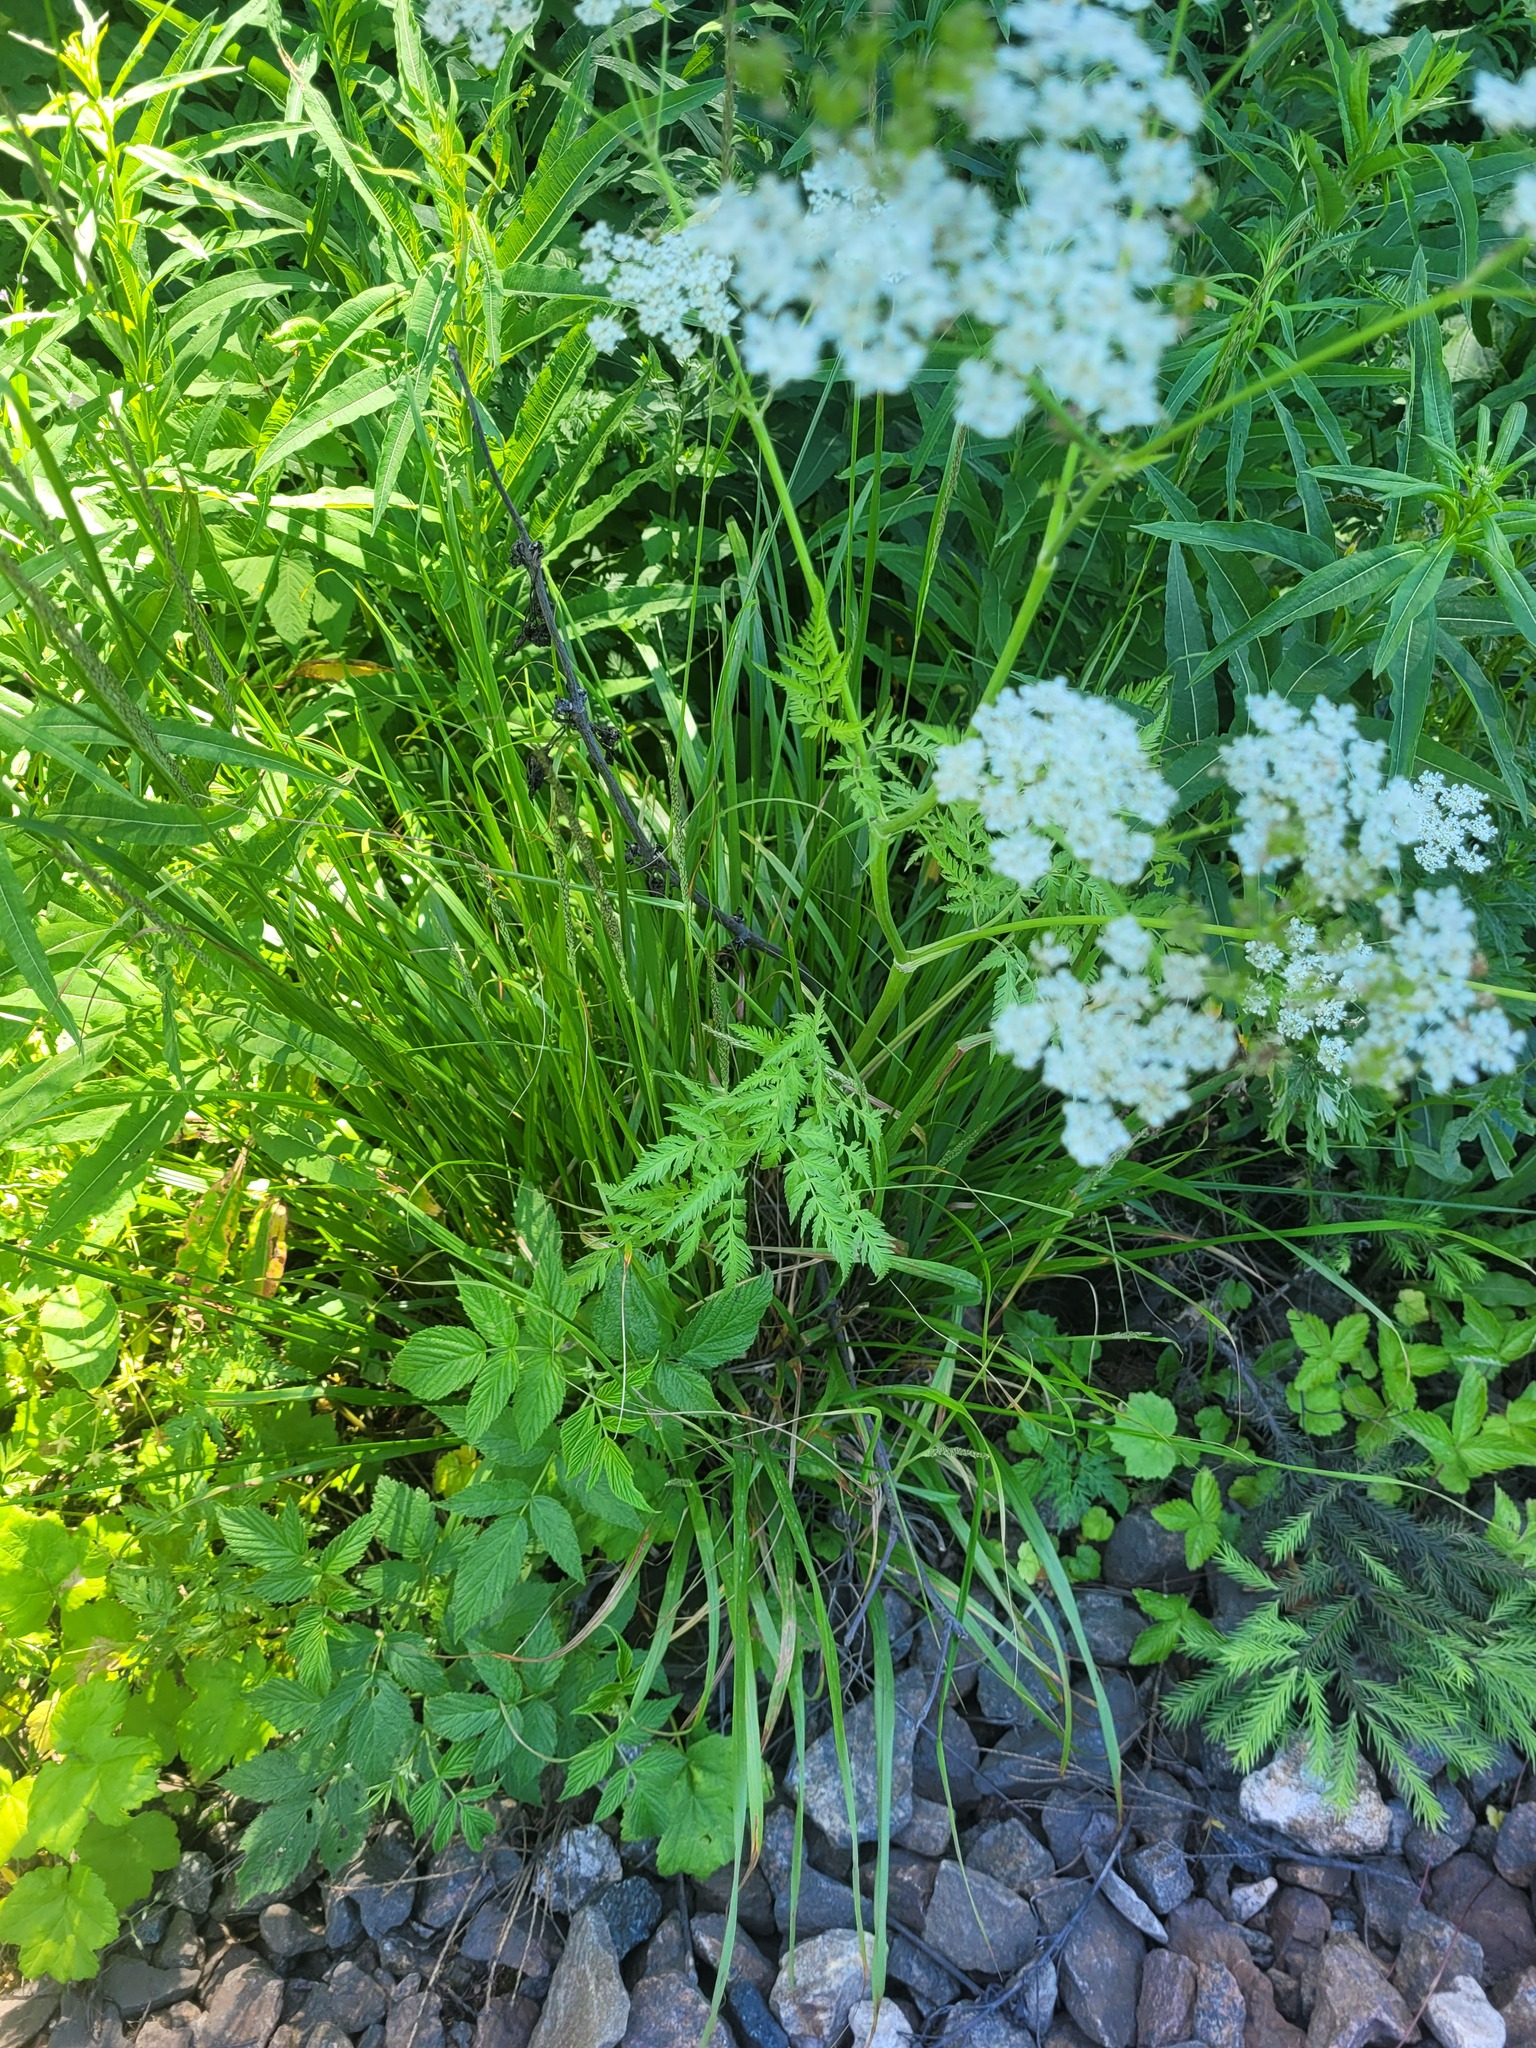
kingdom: Plantae
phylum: Tracheophyta
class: Magnoliopsida
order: Apiales
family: Apiaceae
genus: Anthriscus
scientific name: Anthriscus sylvestris
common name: Cow parsley
